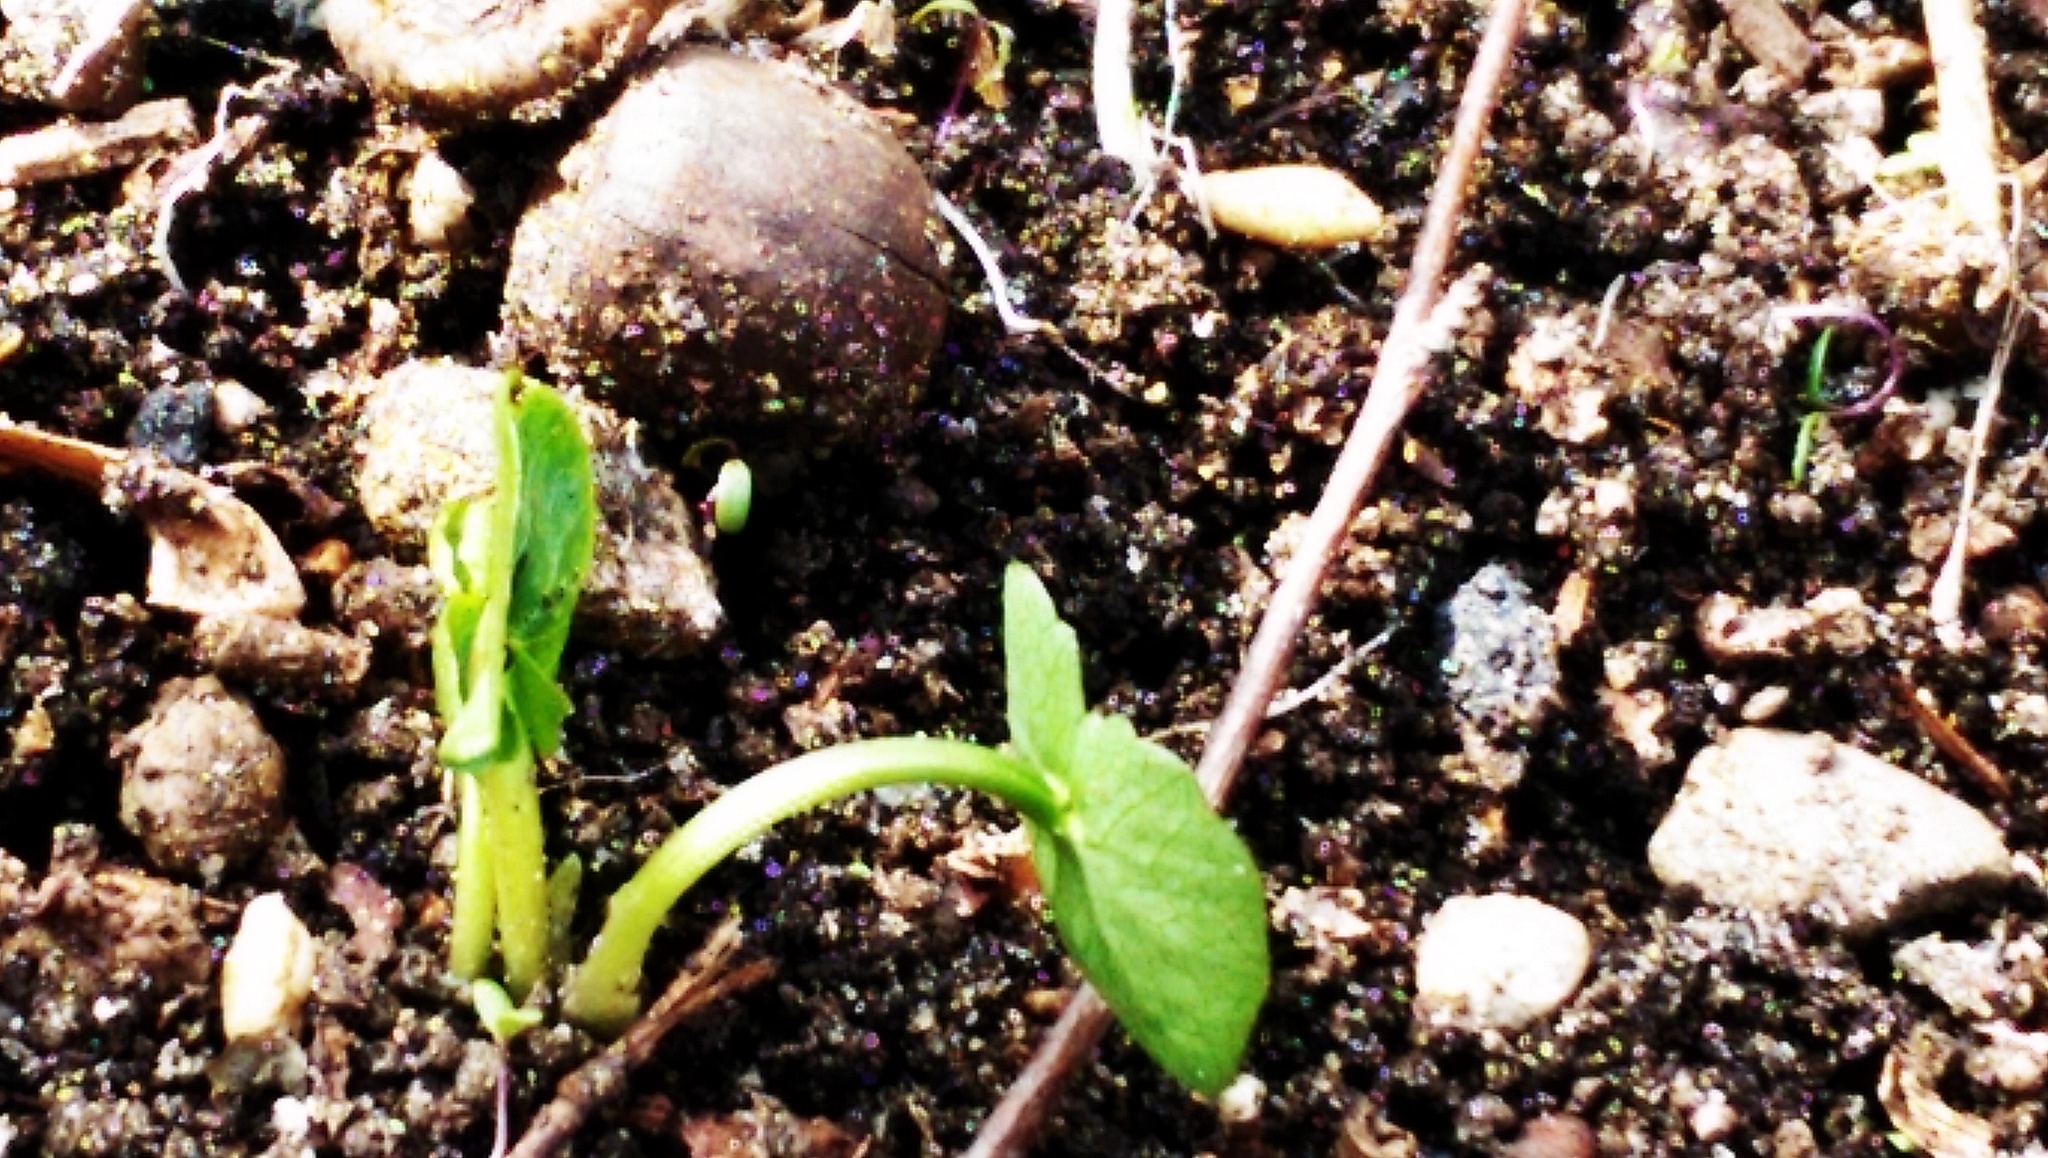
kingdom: Plantae
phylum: Tracheophyta
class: Magnoliopsida
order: Ranunculales
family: Ranunculaceae
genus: Ficaria
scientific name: Ficaria verna
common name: Lesser celandine
